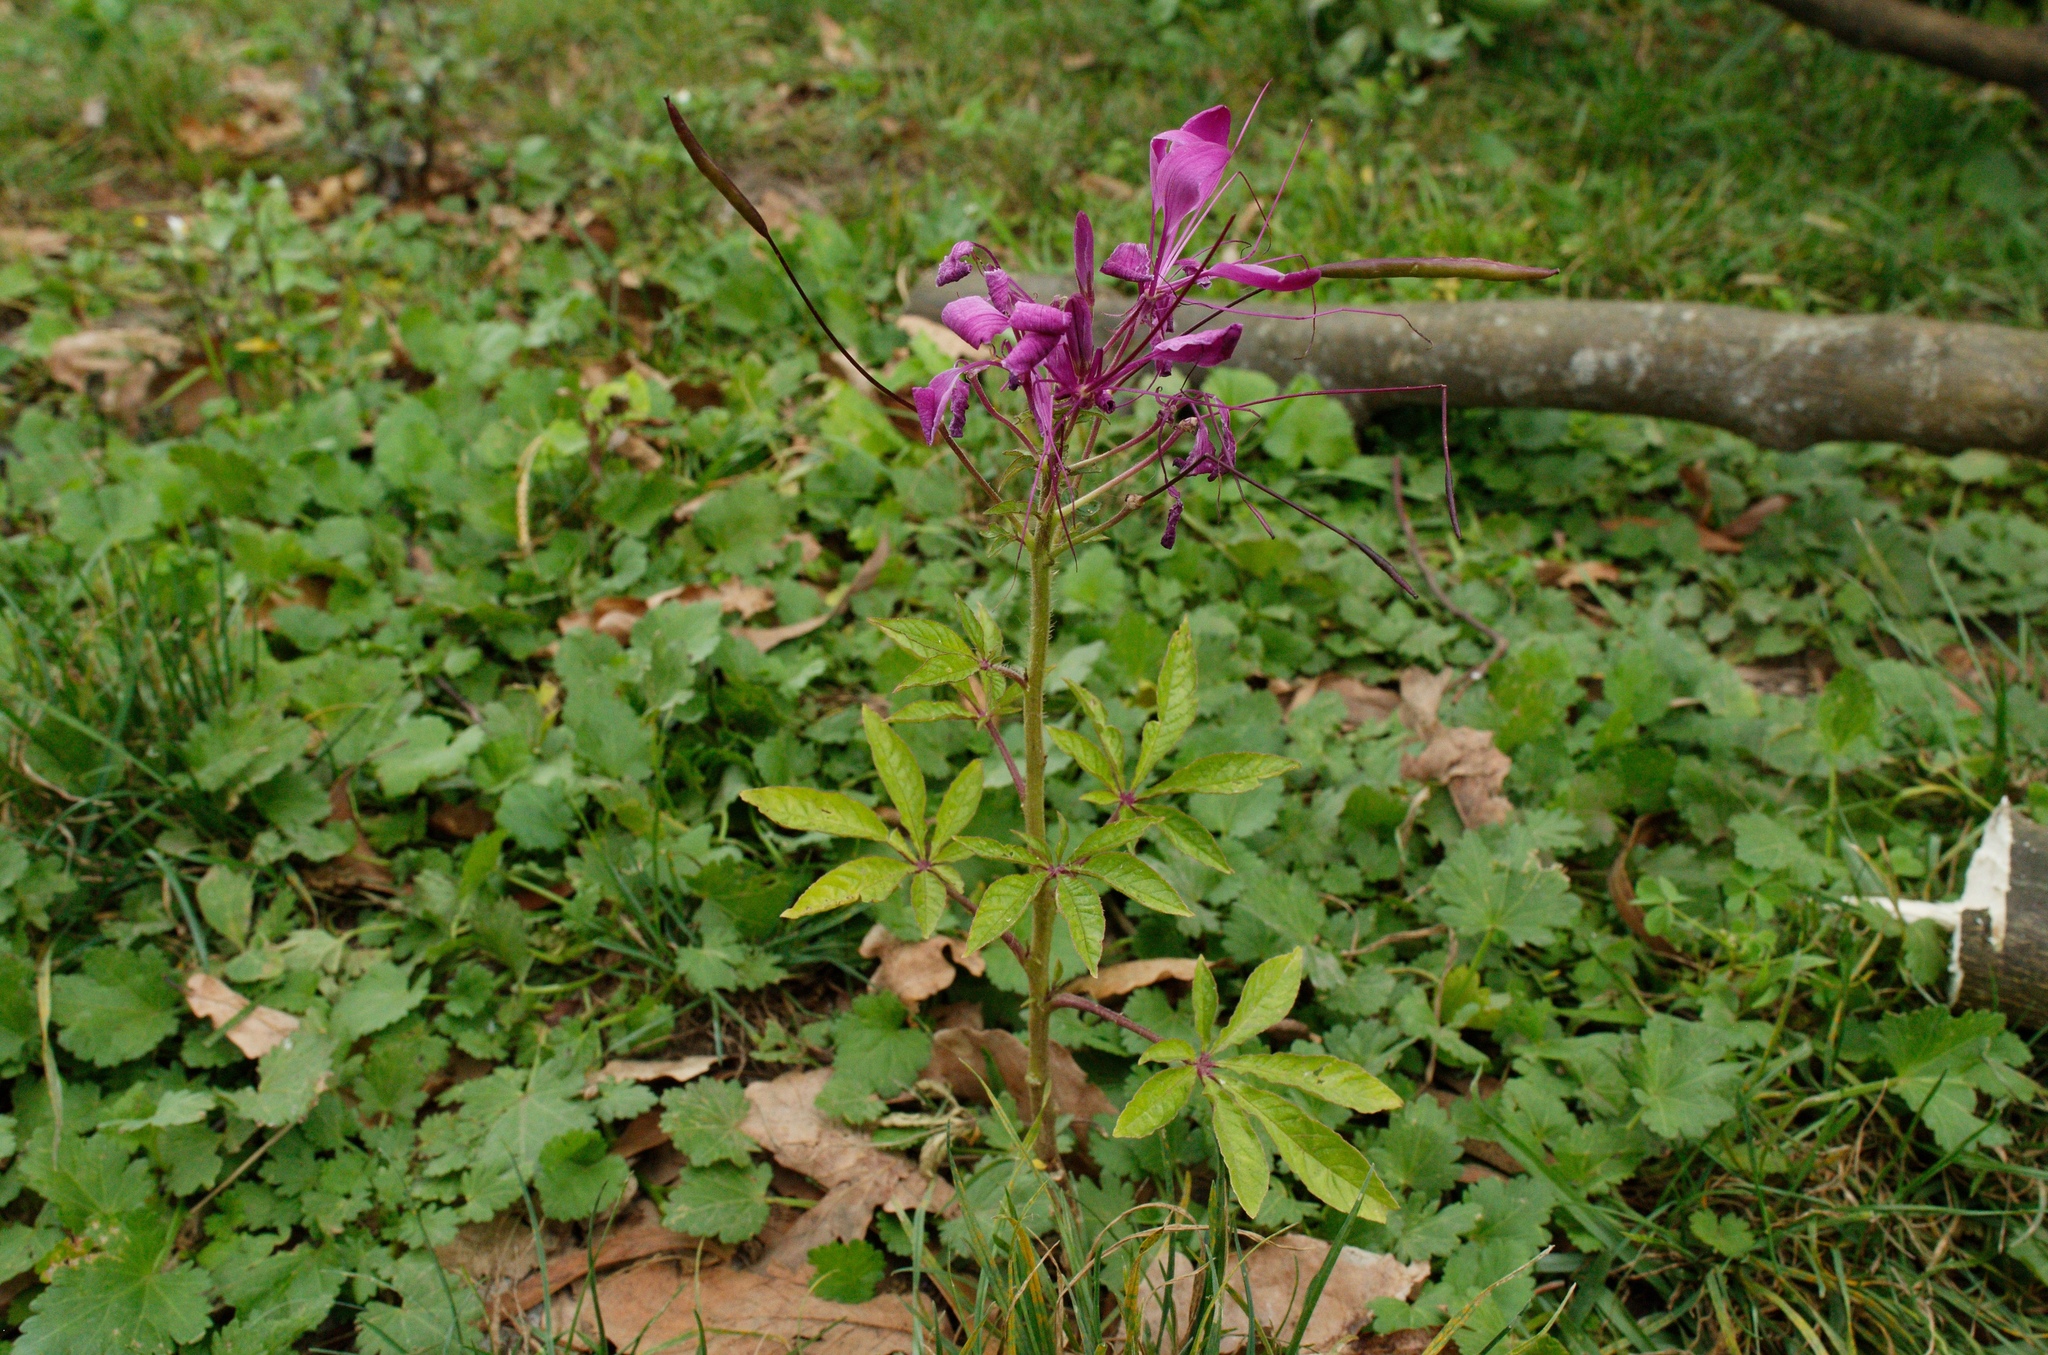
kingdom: Plantae
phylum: Tracheophyta
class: Magnoliopsida
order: Brassicales
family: Cleomaceae
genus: Tarenaya
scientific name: Tarenaya houtteana
